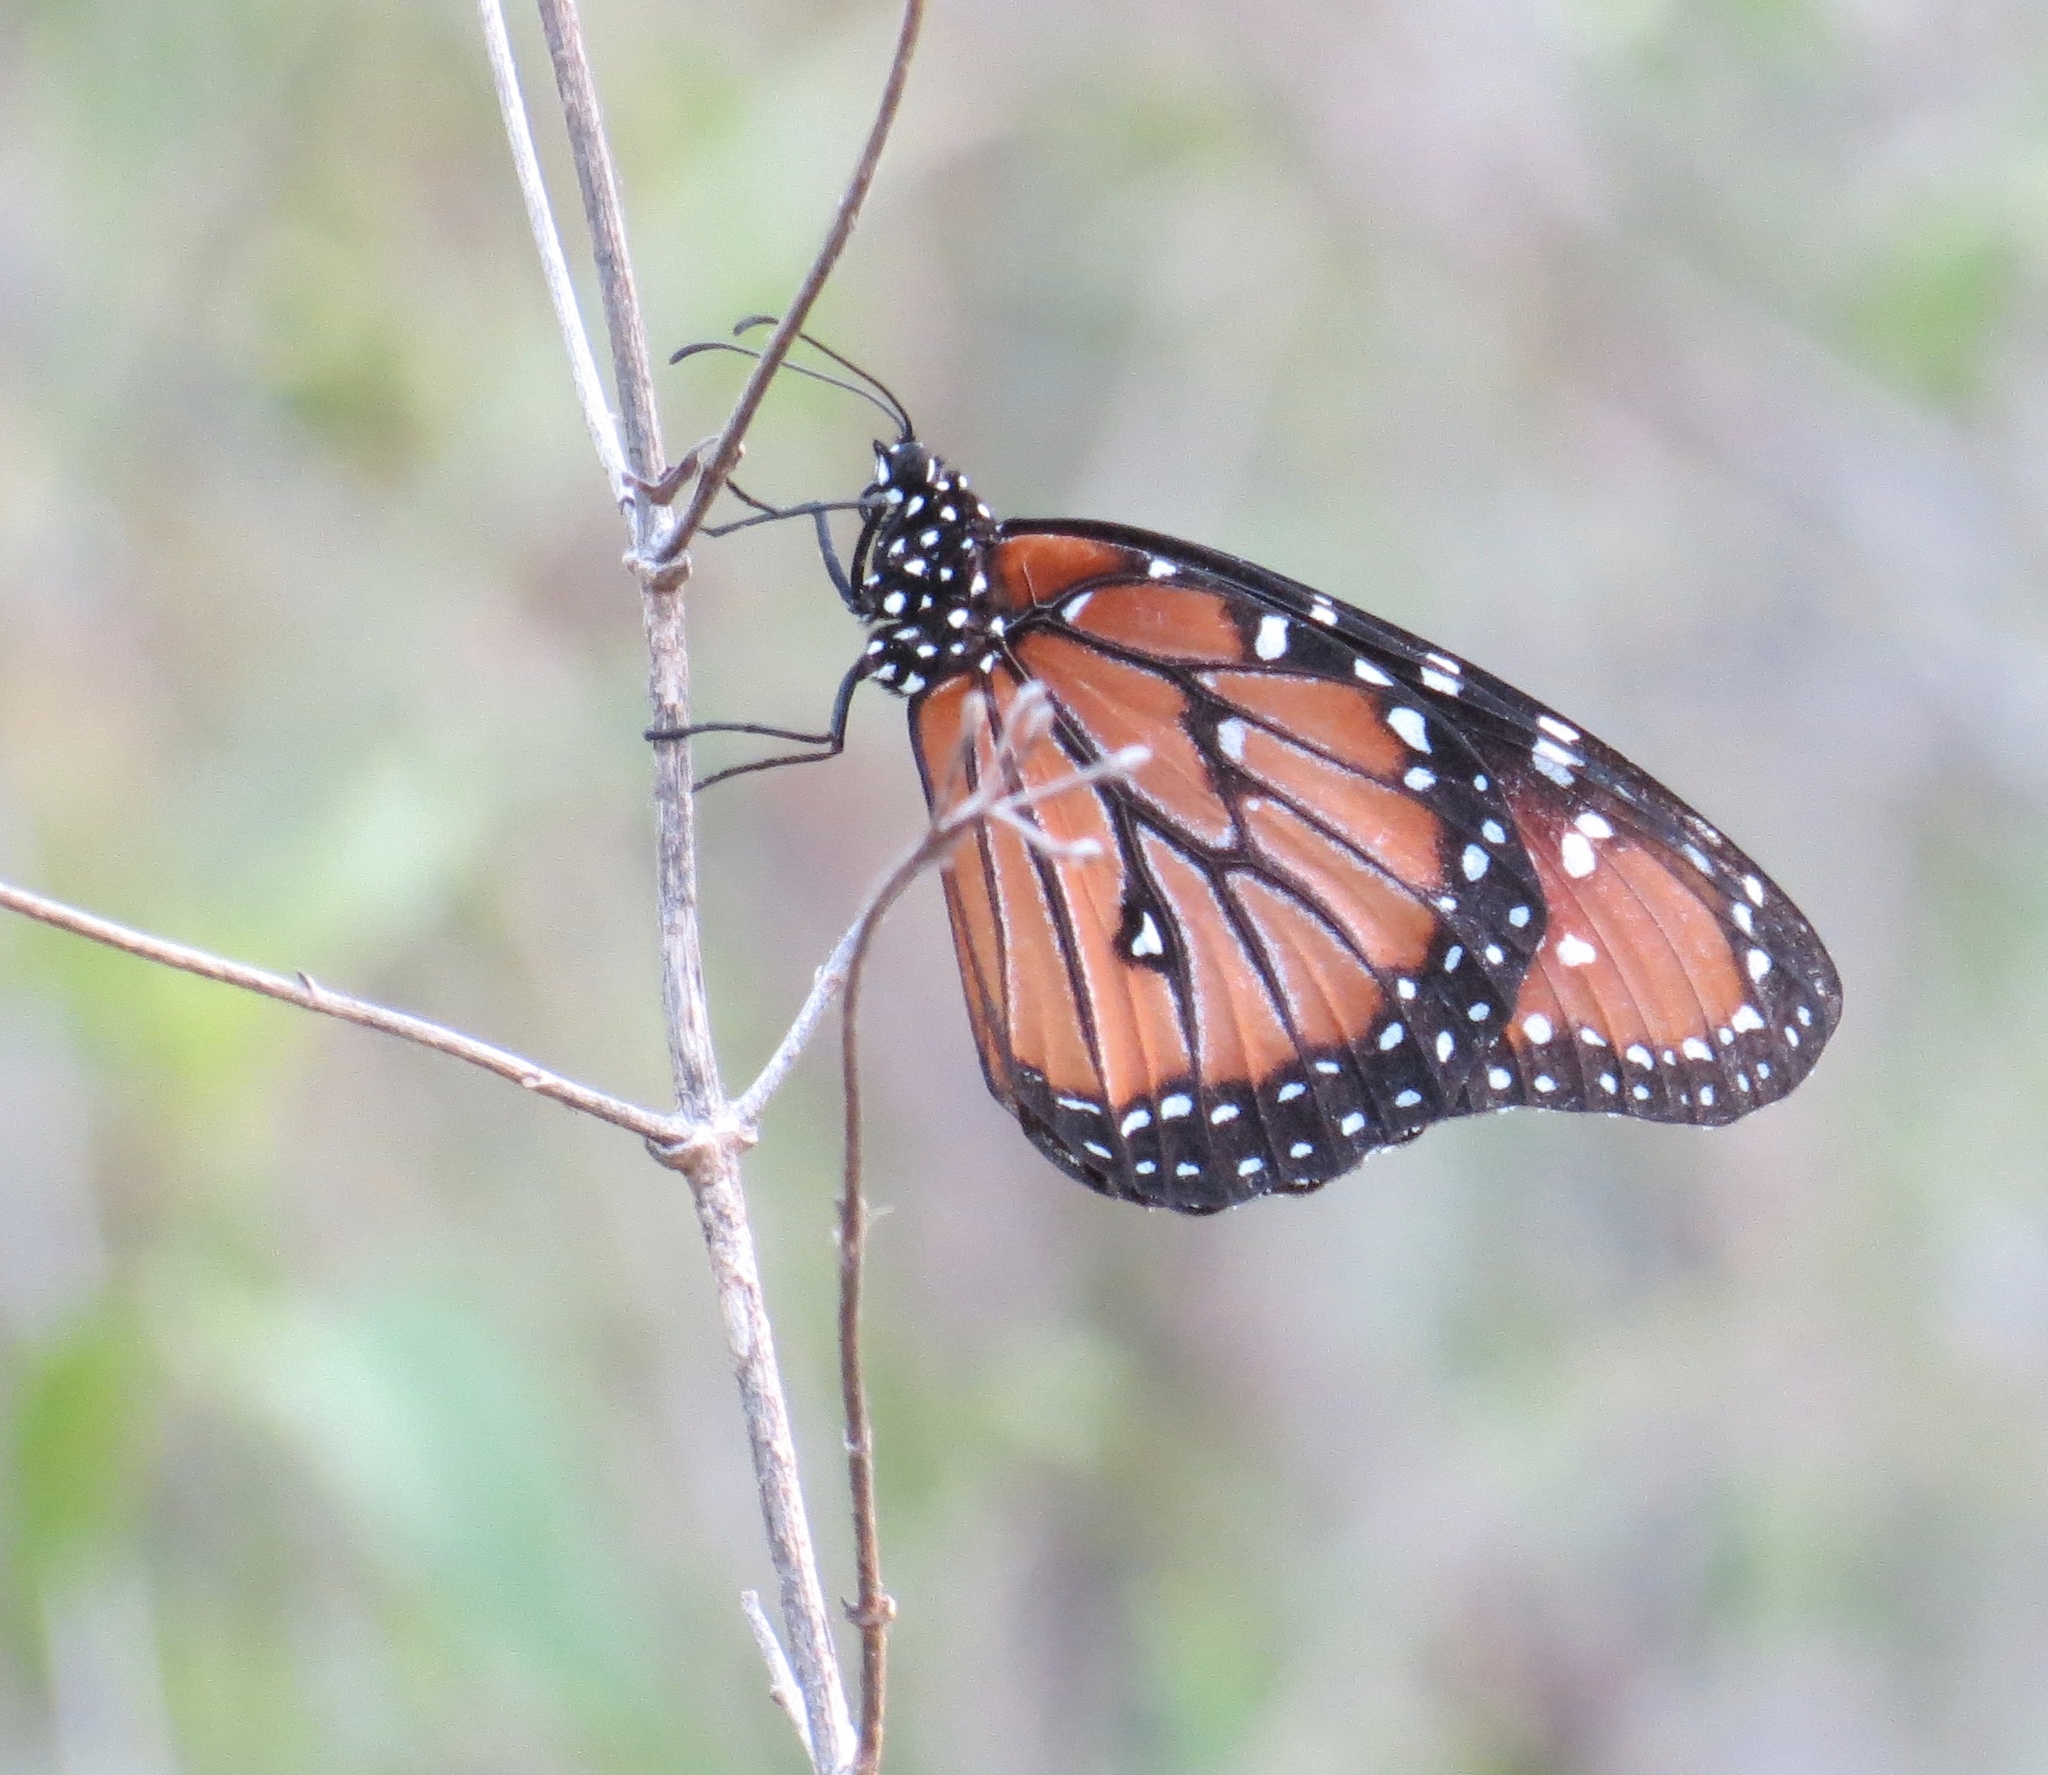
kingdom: Animalia
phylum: Arthropoda
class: Insecta
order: Lepidoptera
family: Nymphalidae
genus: Danaus
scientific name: Danaus gilippus
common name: Queen
